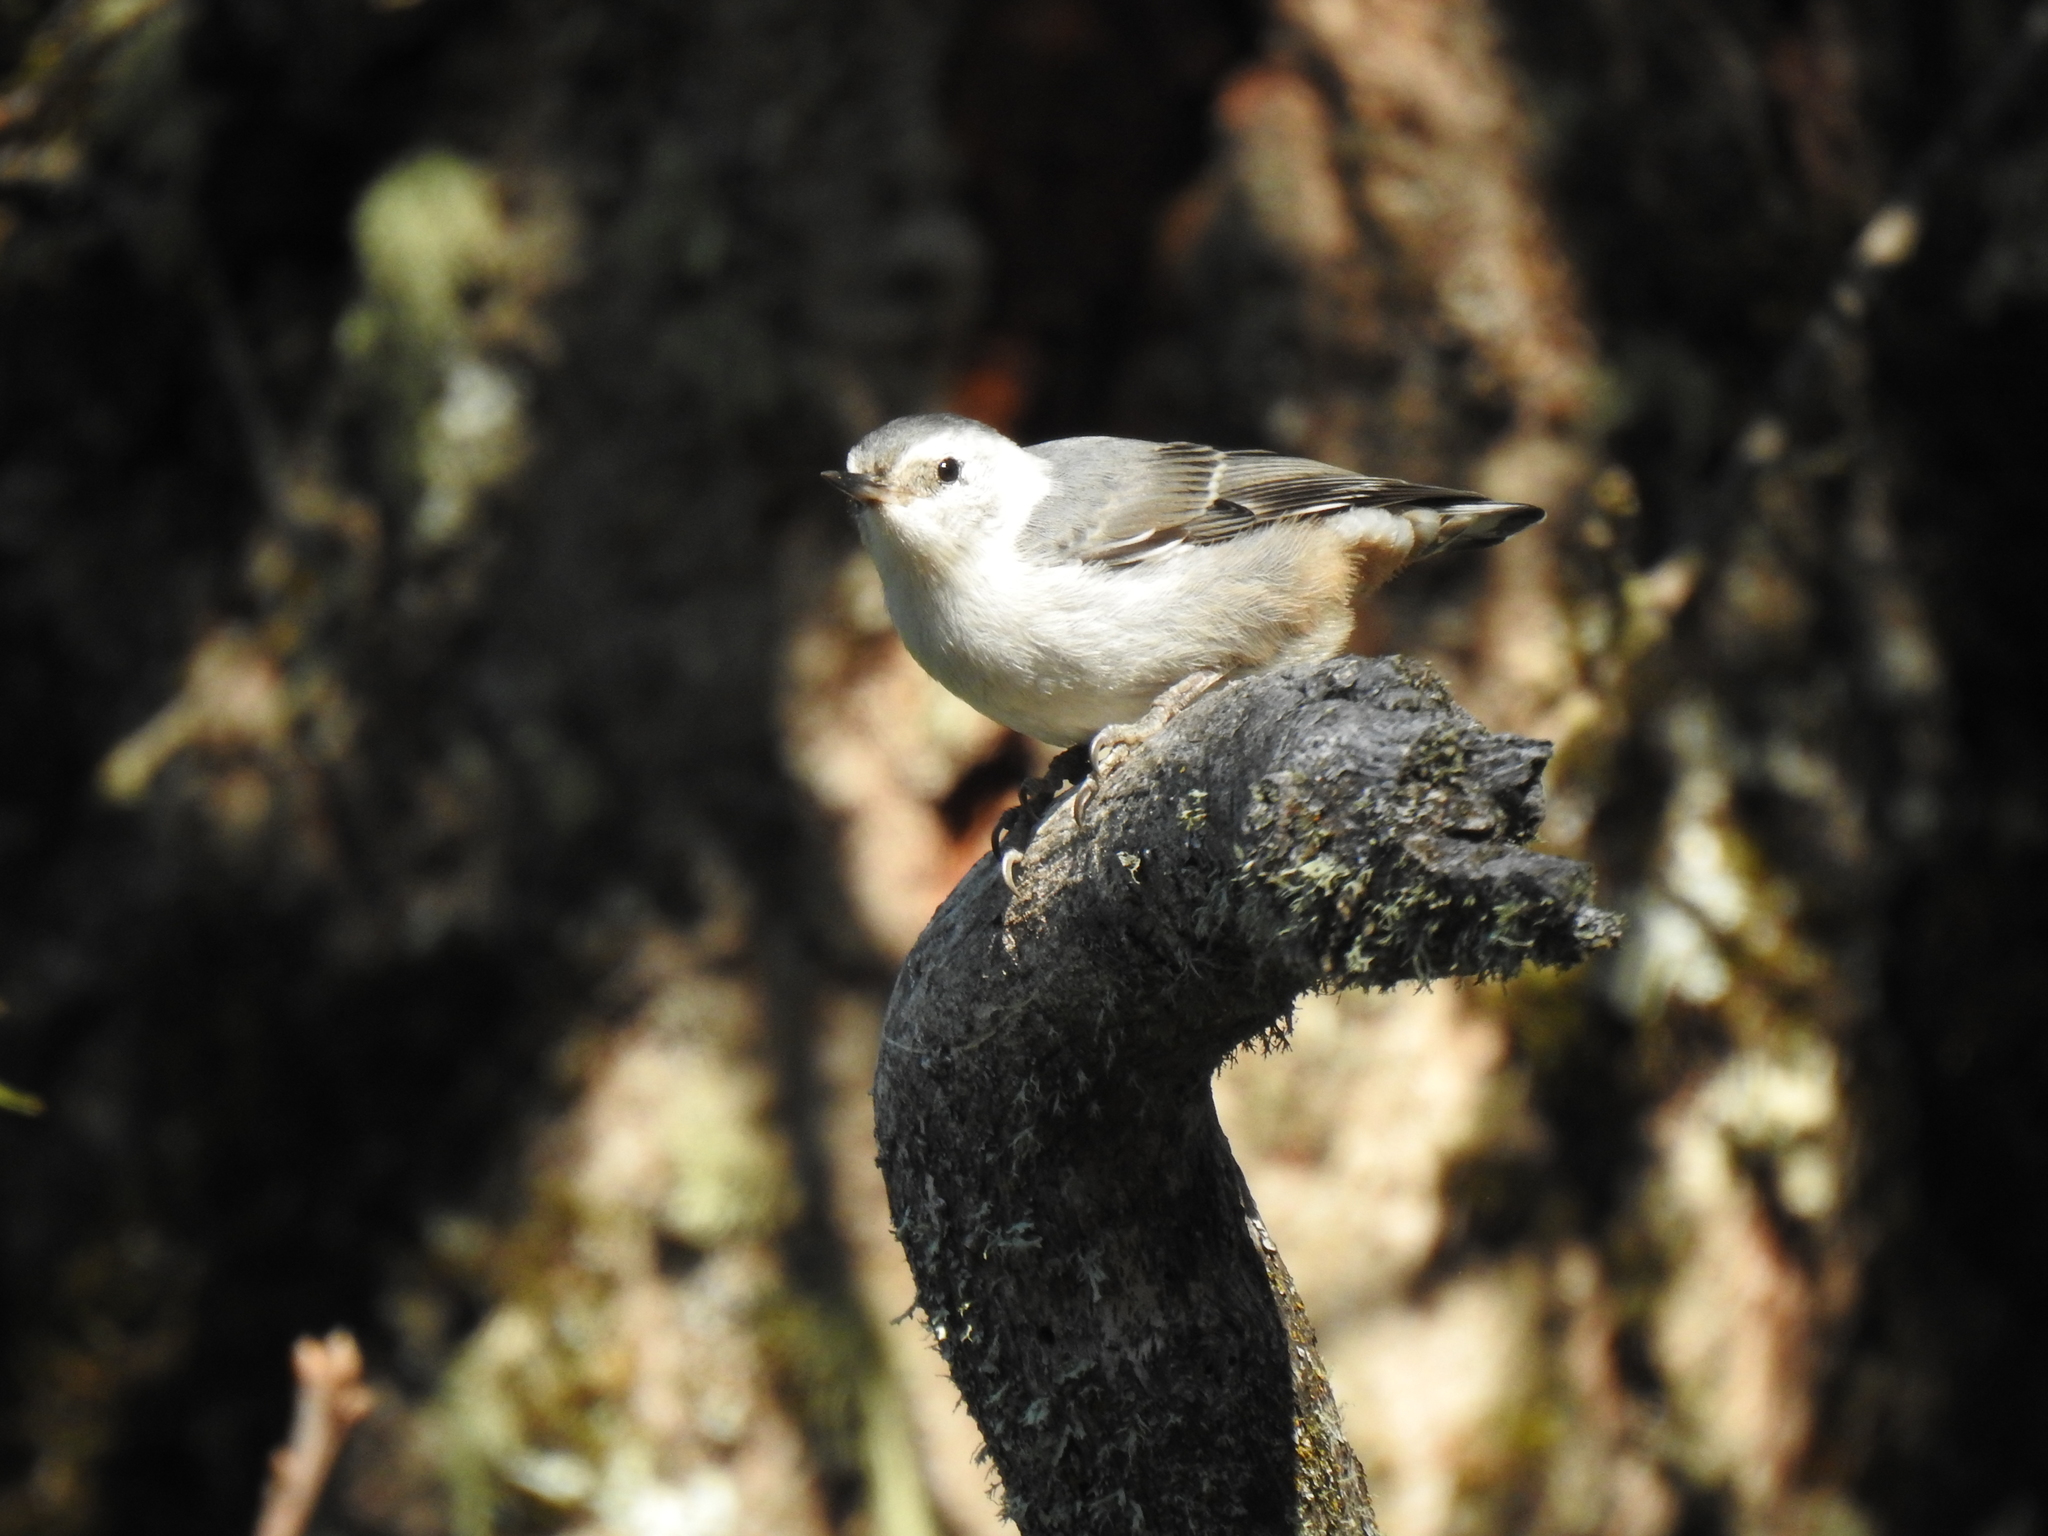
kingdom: Animalia
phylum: Chordata
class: Aves
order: Passeriformes
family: Sittidae
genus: Sitta
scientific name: Sitta carolinensis
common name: White-breasted nuthatch
